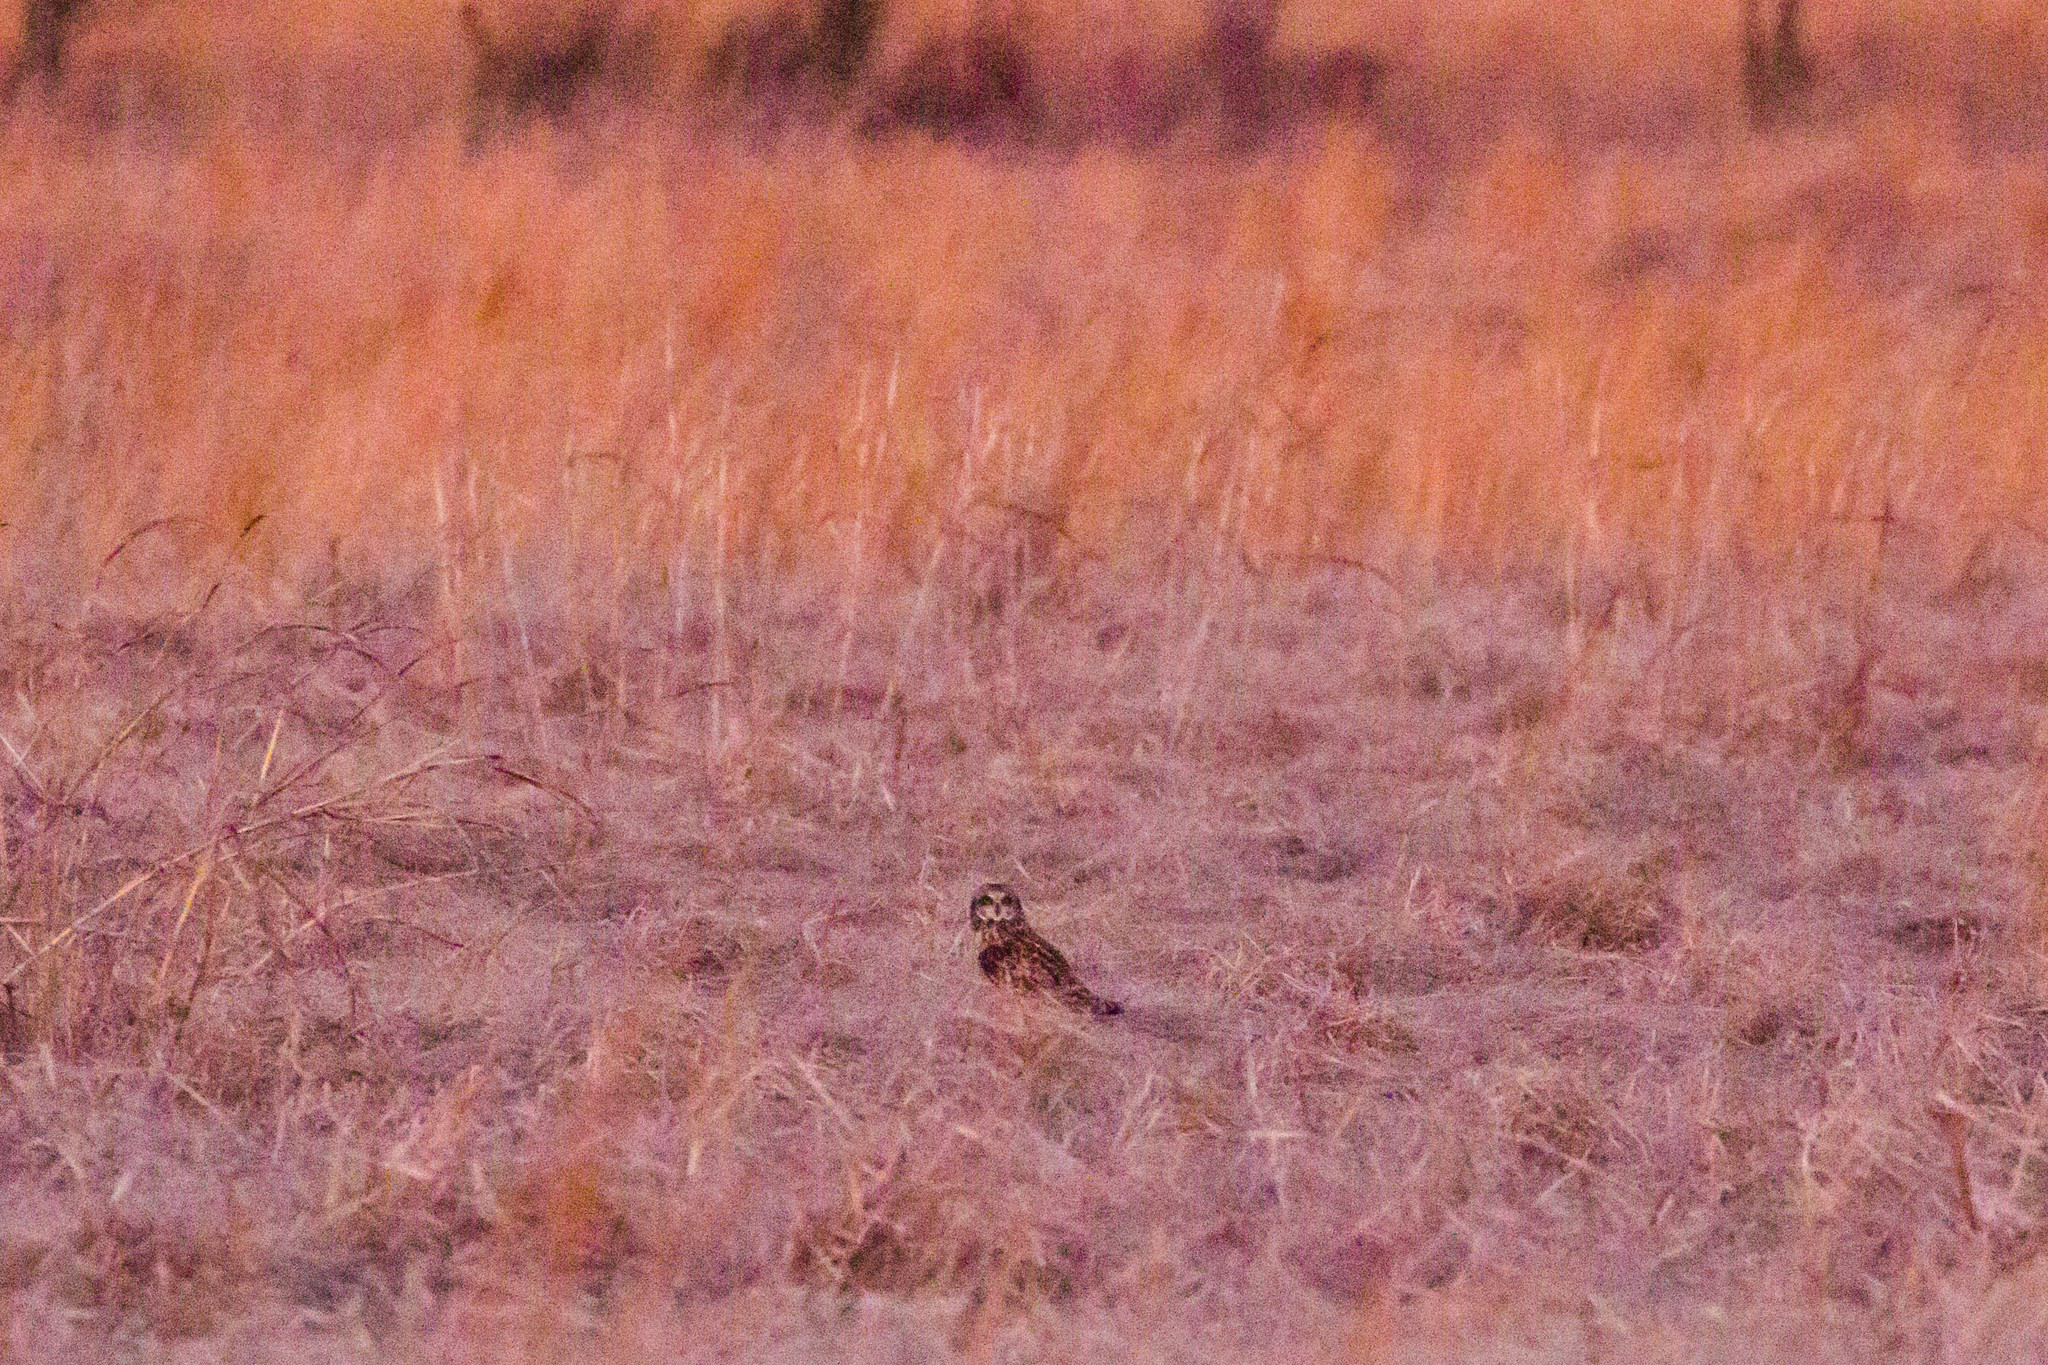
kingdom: Animalia
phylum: Chordata
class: Aves
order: Strigiformes
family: Strigidae
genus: Asio
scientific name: Asio flammeus
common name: Short-eared owl
